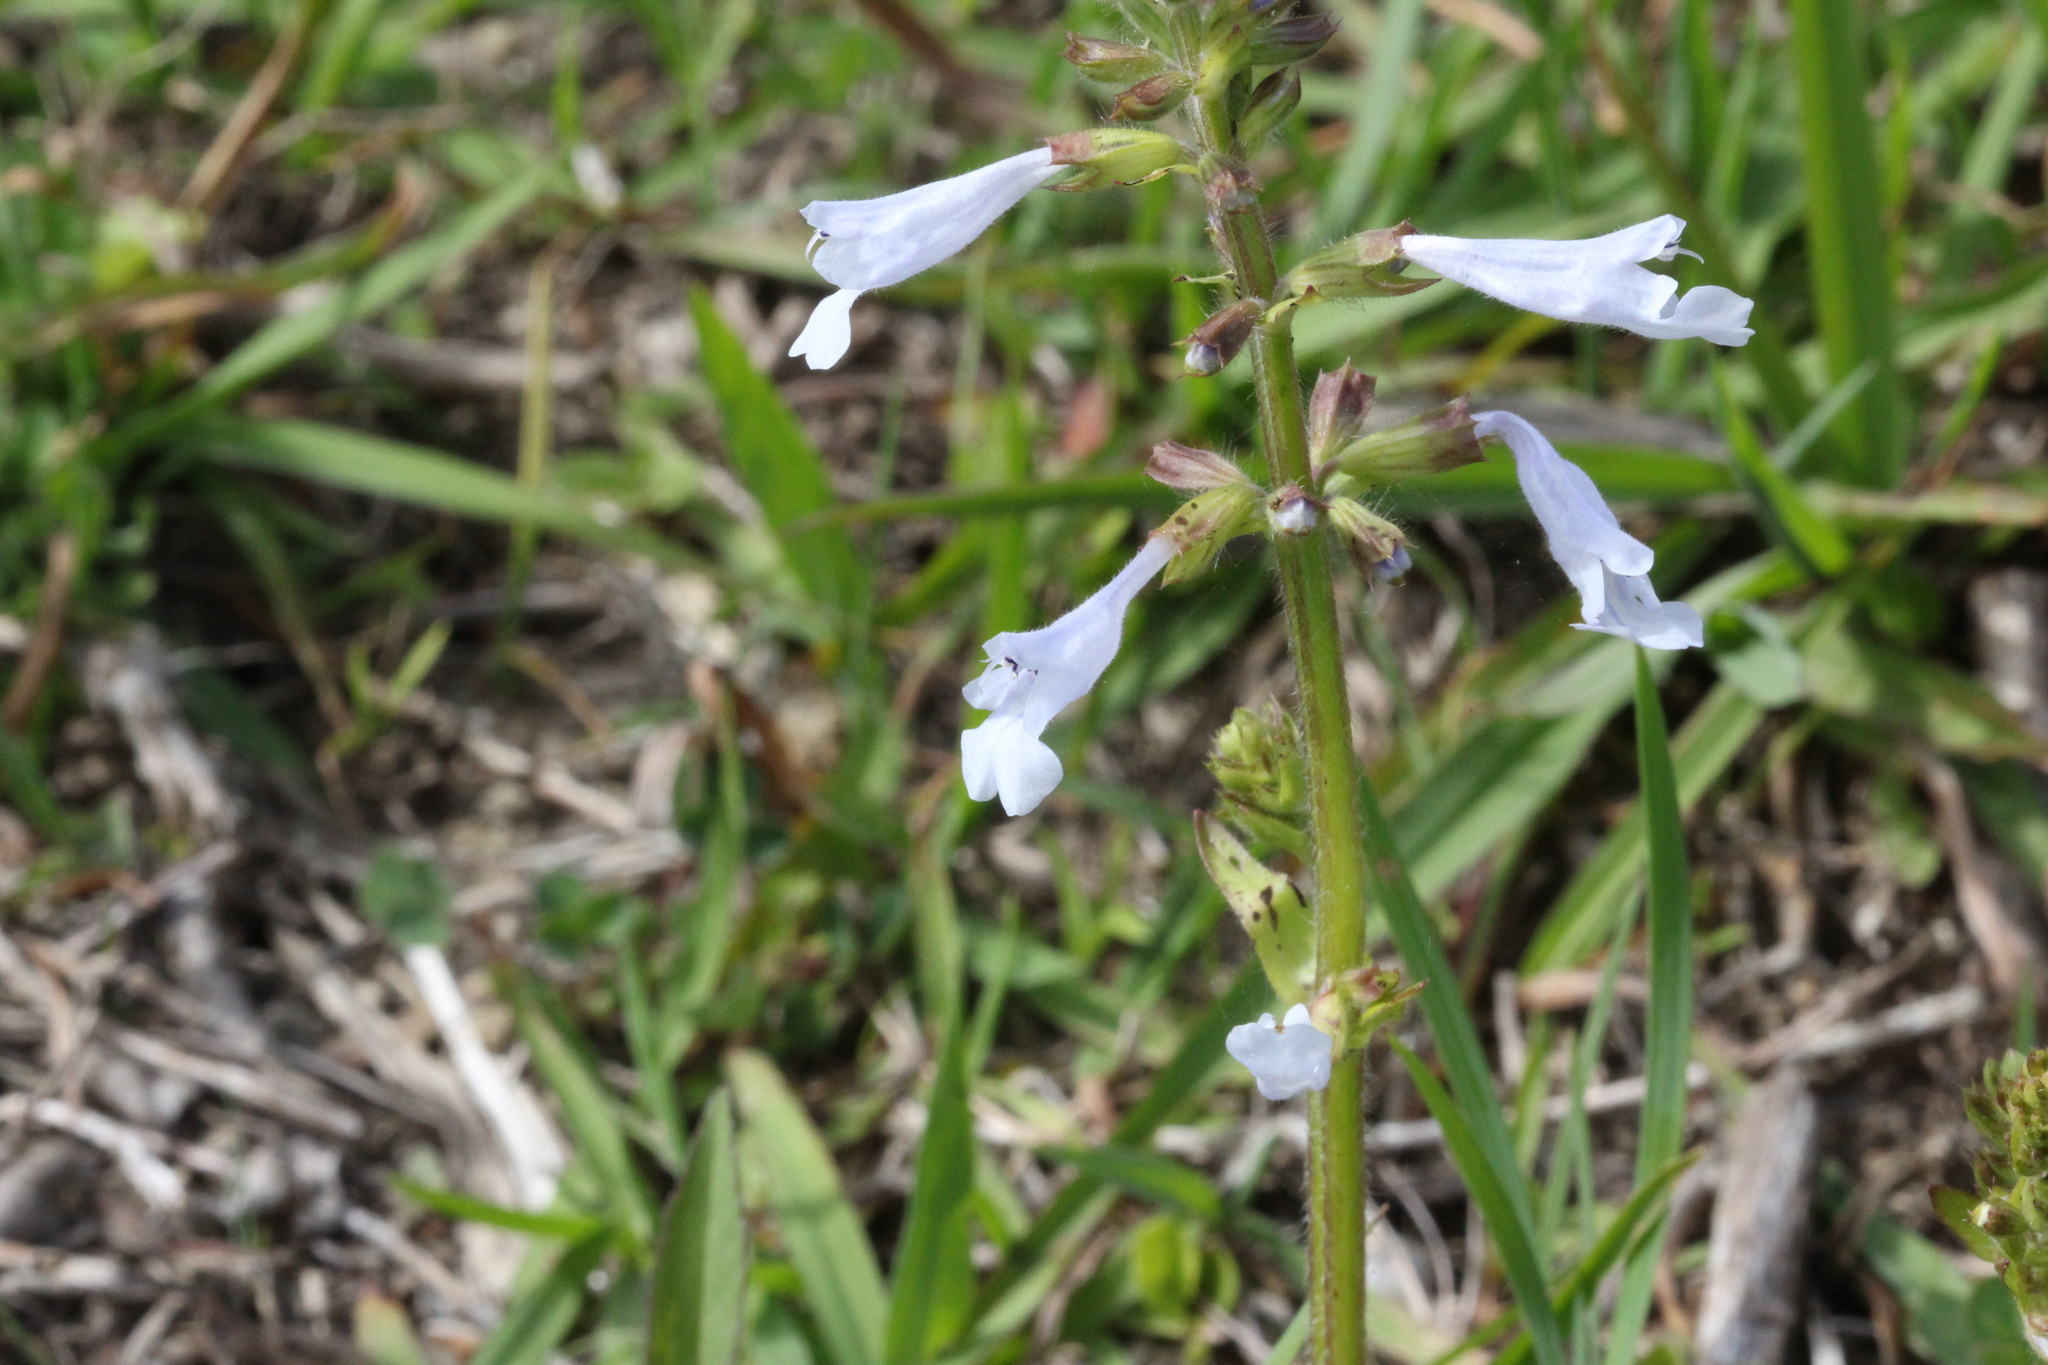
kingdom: Plantae
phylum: Tracheophyta
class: Magnoliopsida
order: Lamiales
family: Lamiaceae
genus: Salvia
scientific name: Salvia lyrata
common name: Cancerweed
